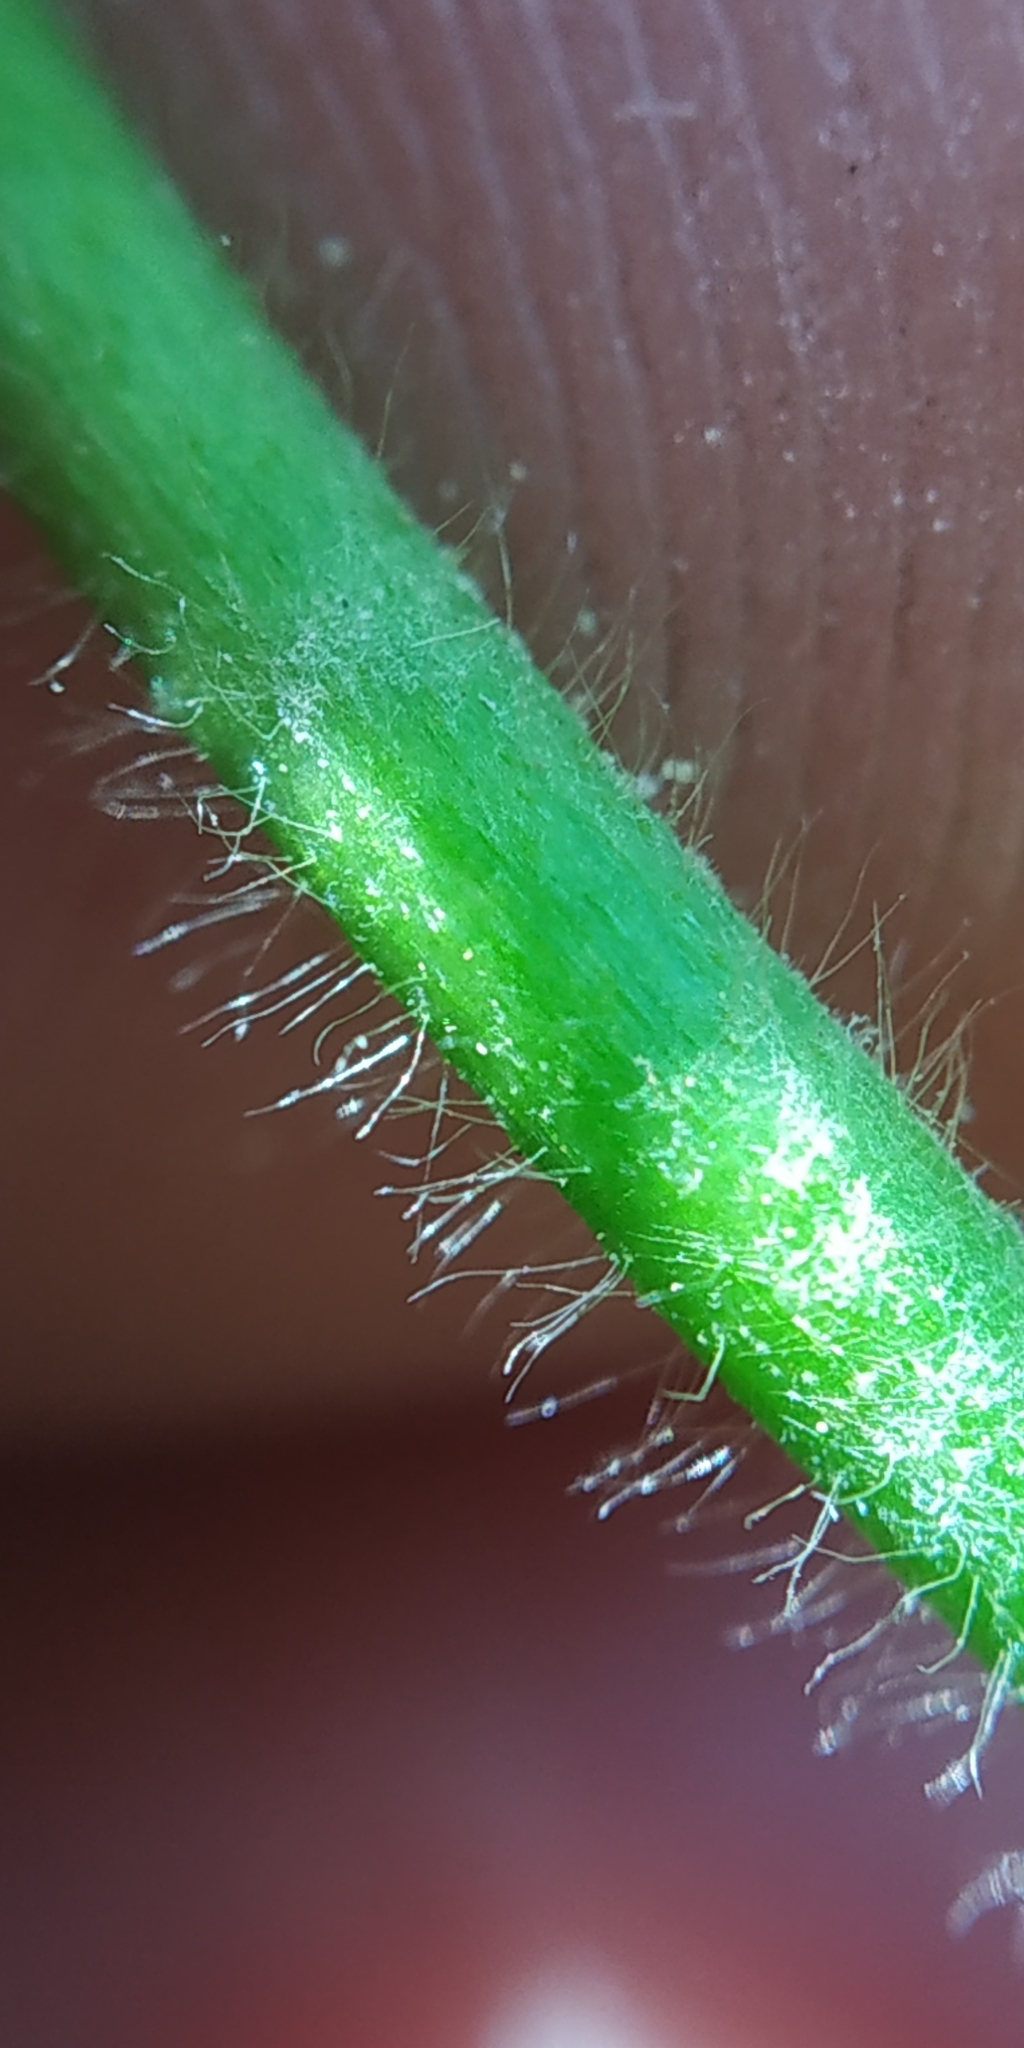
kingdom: Plantae
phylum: Tracheophyta
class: Magnoliopsida
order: Rosales
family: Rosaceae
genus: Alchemilla
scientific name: Alchemilla subcrenata
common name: Broadtooth lady's mantle
